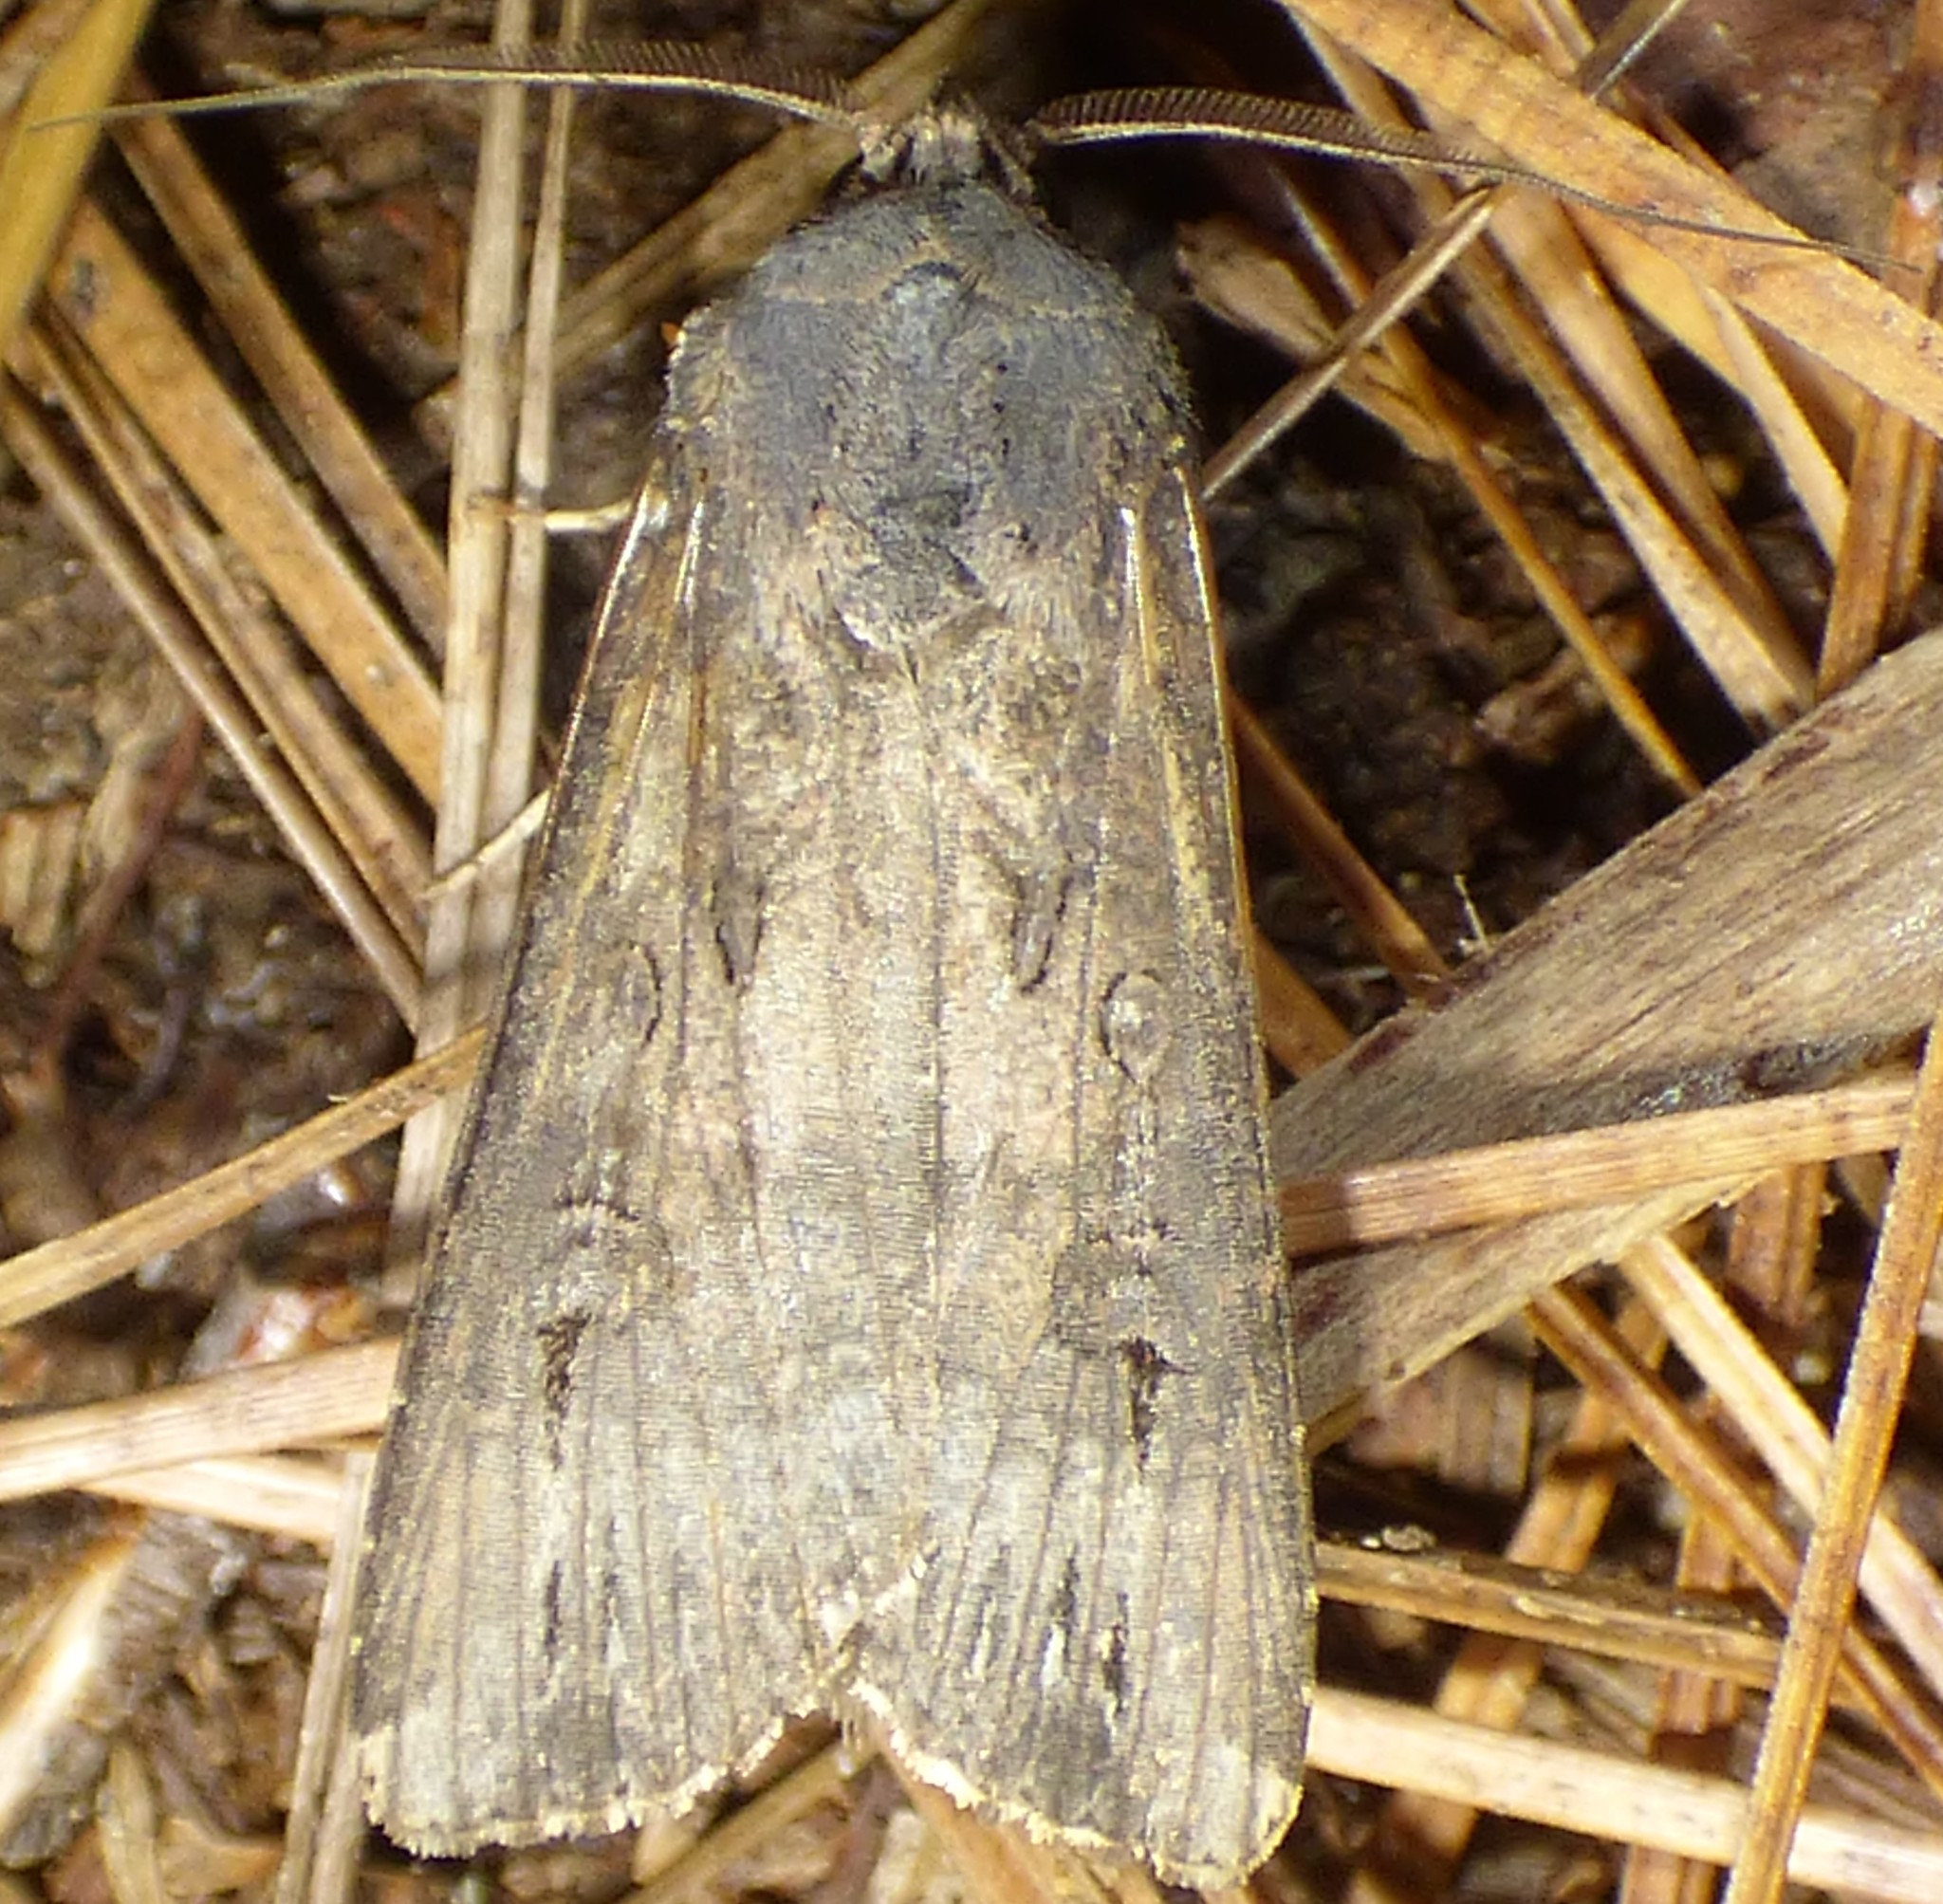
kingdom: Animalia
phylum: Arthropoda
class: Insecta
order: Lepidoptera
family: Noctuidae
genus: Agrotis
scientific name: Agrotis ipsilon
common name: Dark sword-grass
